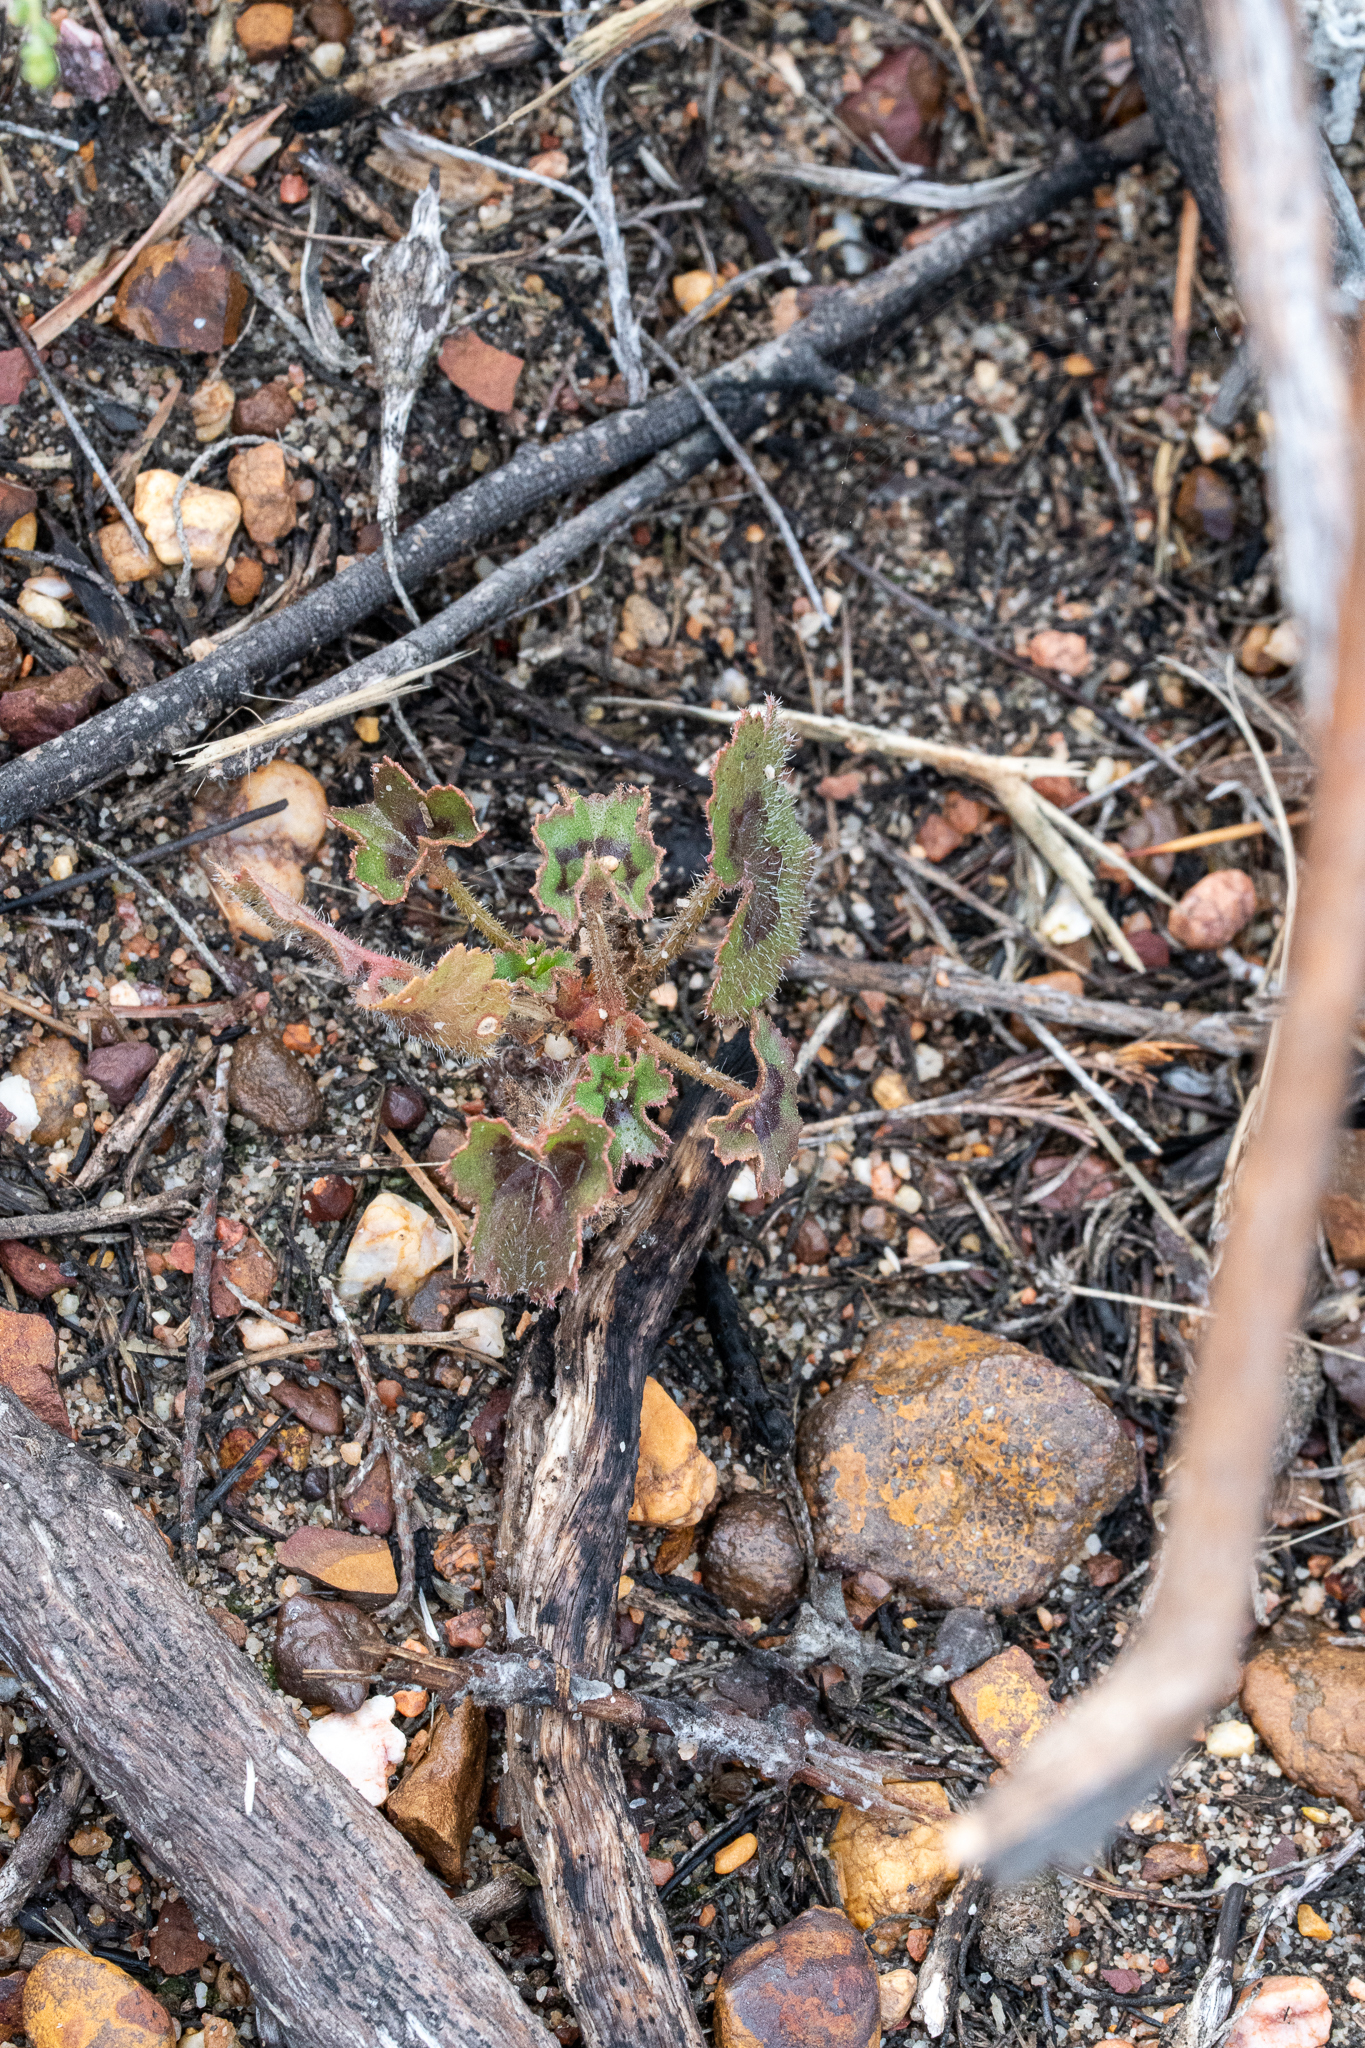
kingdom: Plantae
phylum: Tracheophyta
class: Magnoliopsida
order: Geraniales
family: Geraniaceae
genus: Pelargonium
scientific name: Pelargonium elongatum
